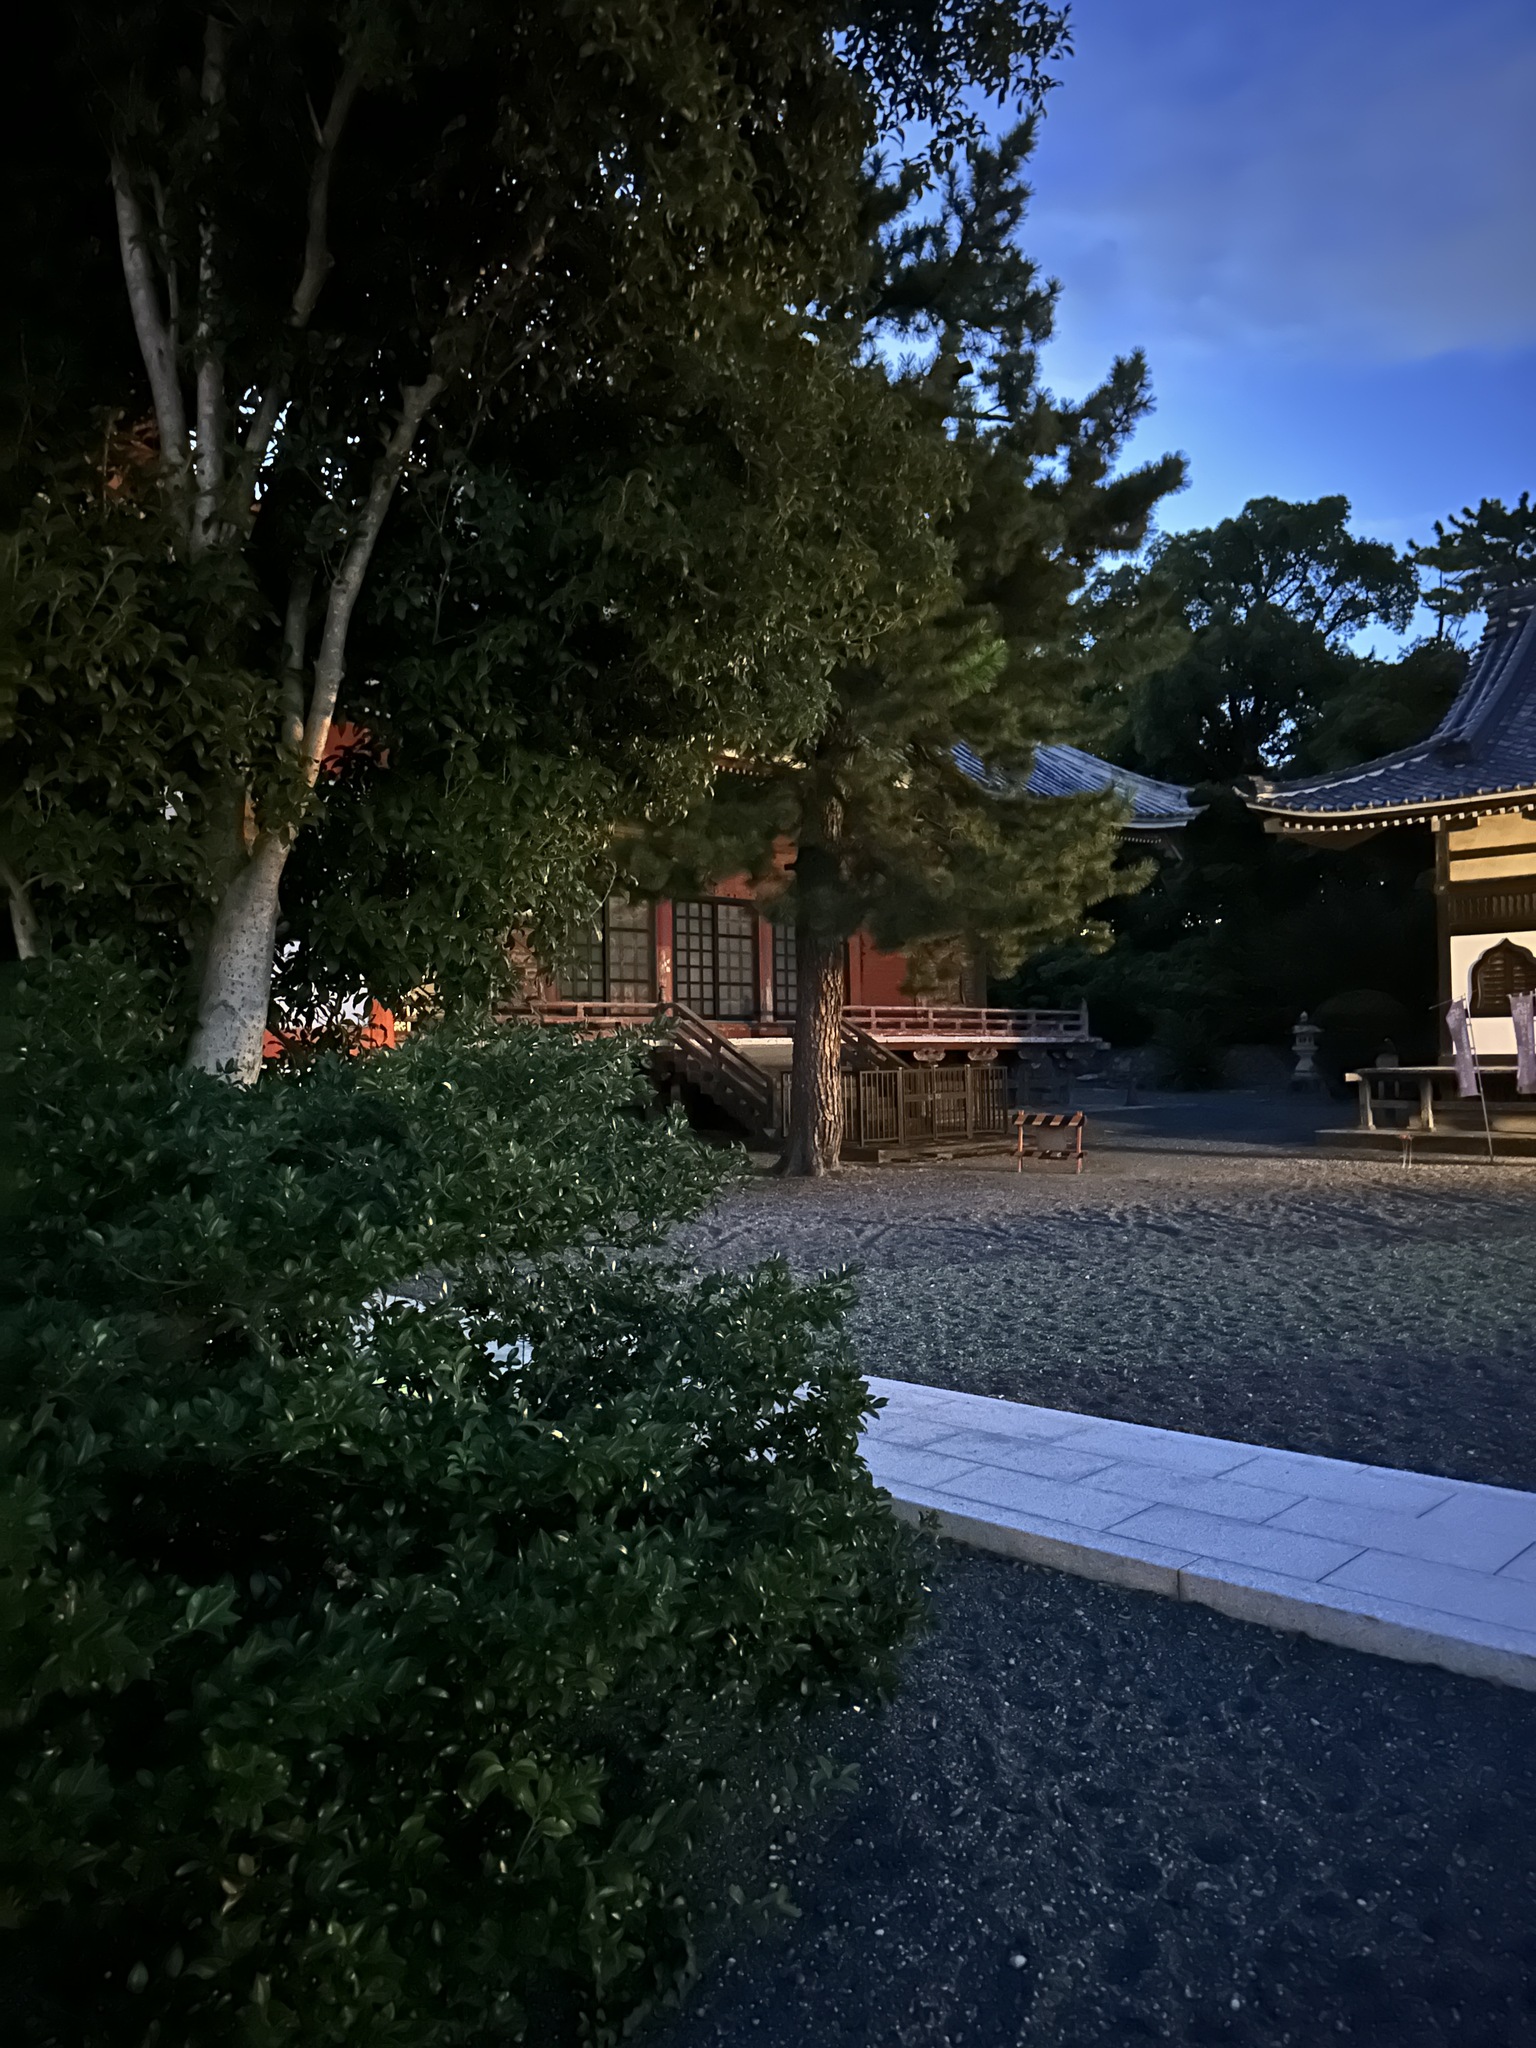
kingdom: Animalia
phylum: Arthropoda
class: Insecta
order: Orthoptera
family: Mogoplistidae
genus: Ornebius
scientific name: Ornebius kanetataki
